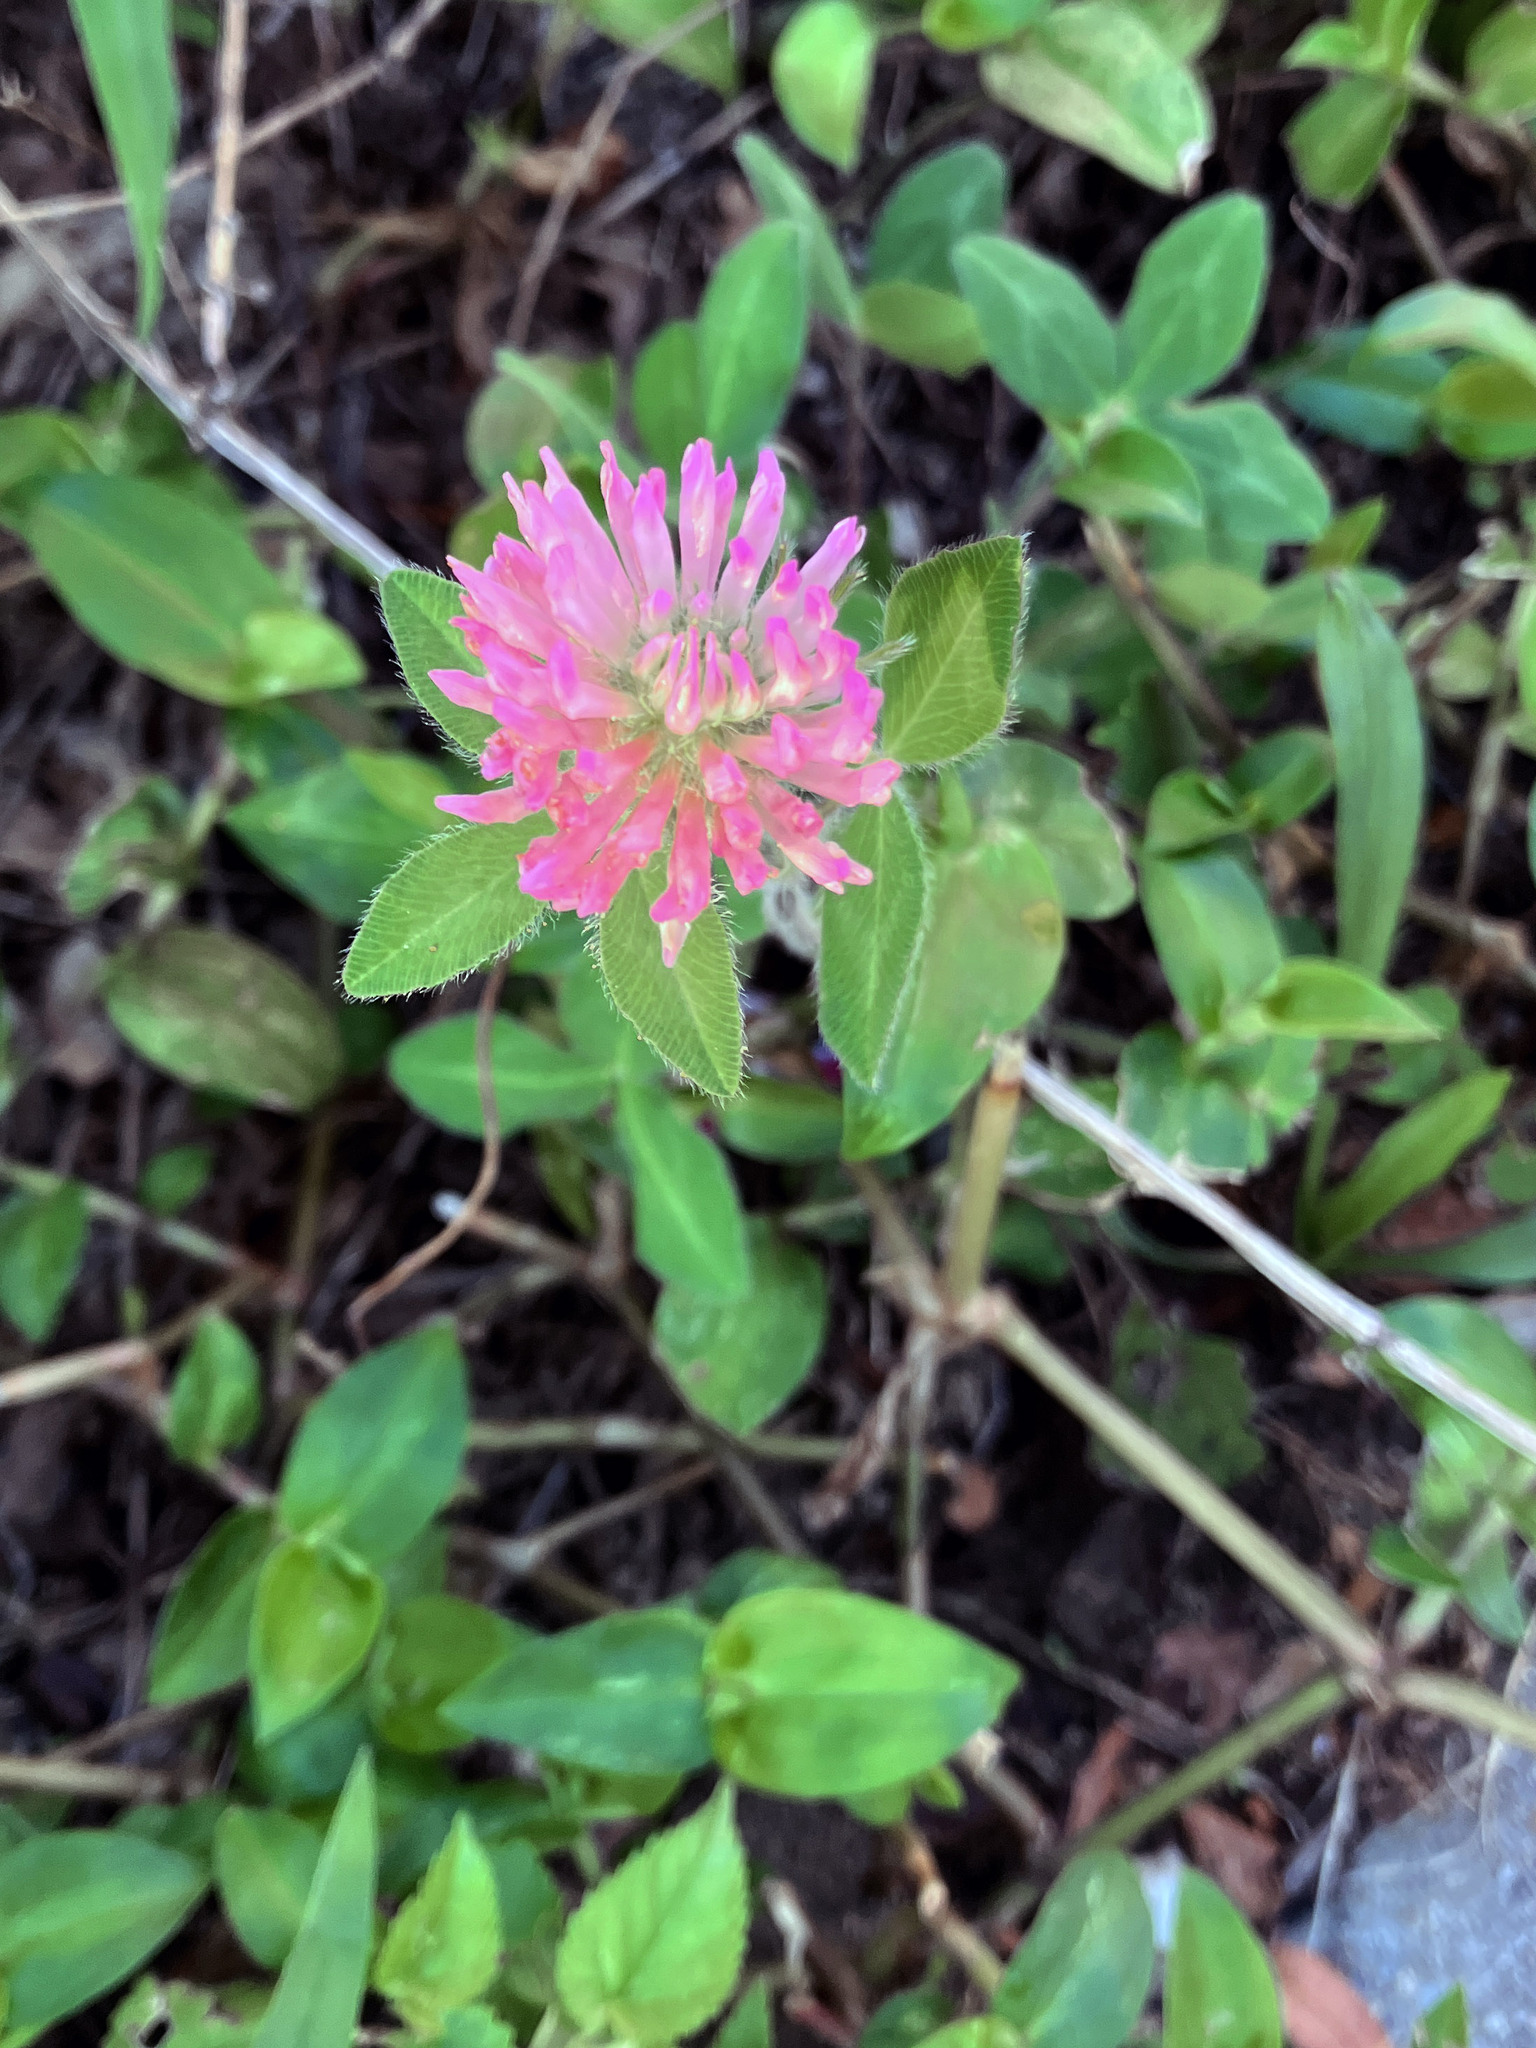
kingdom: Plantae
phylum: Tracheophyta
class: Magnoliopsida
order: Fabales
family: Fabaceae
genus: Trifolium
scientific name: Trifolium pratense
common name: Red clover
